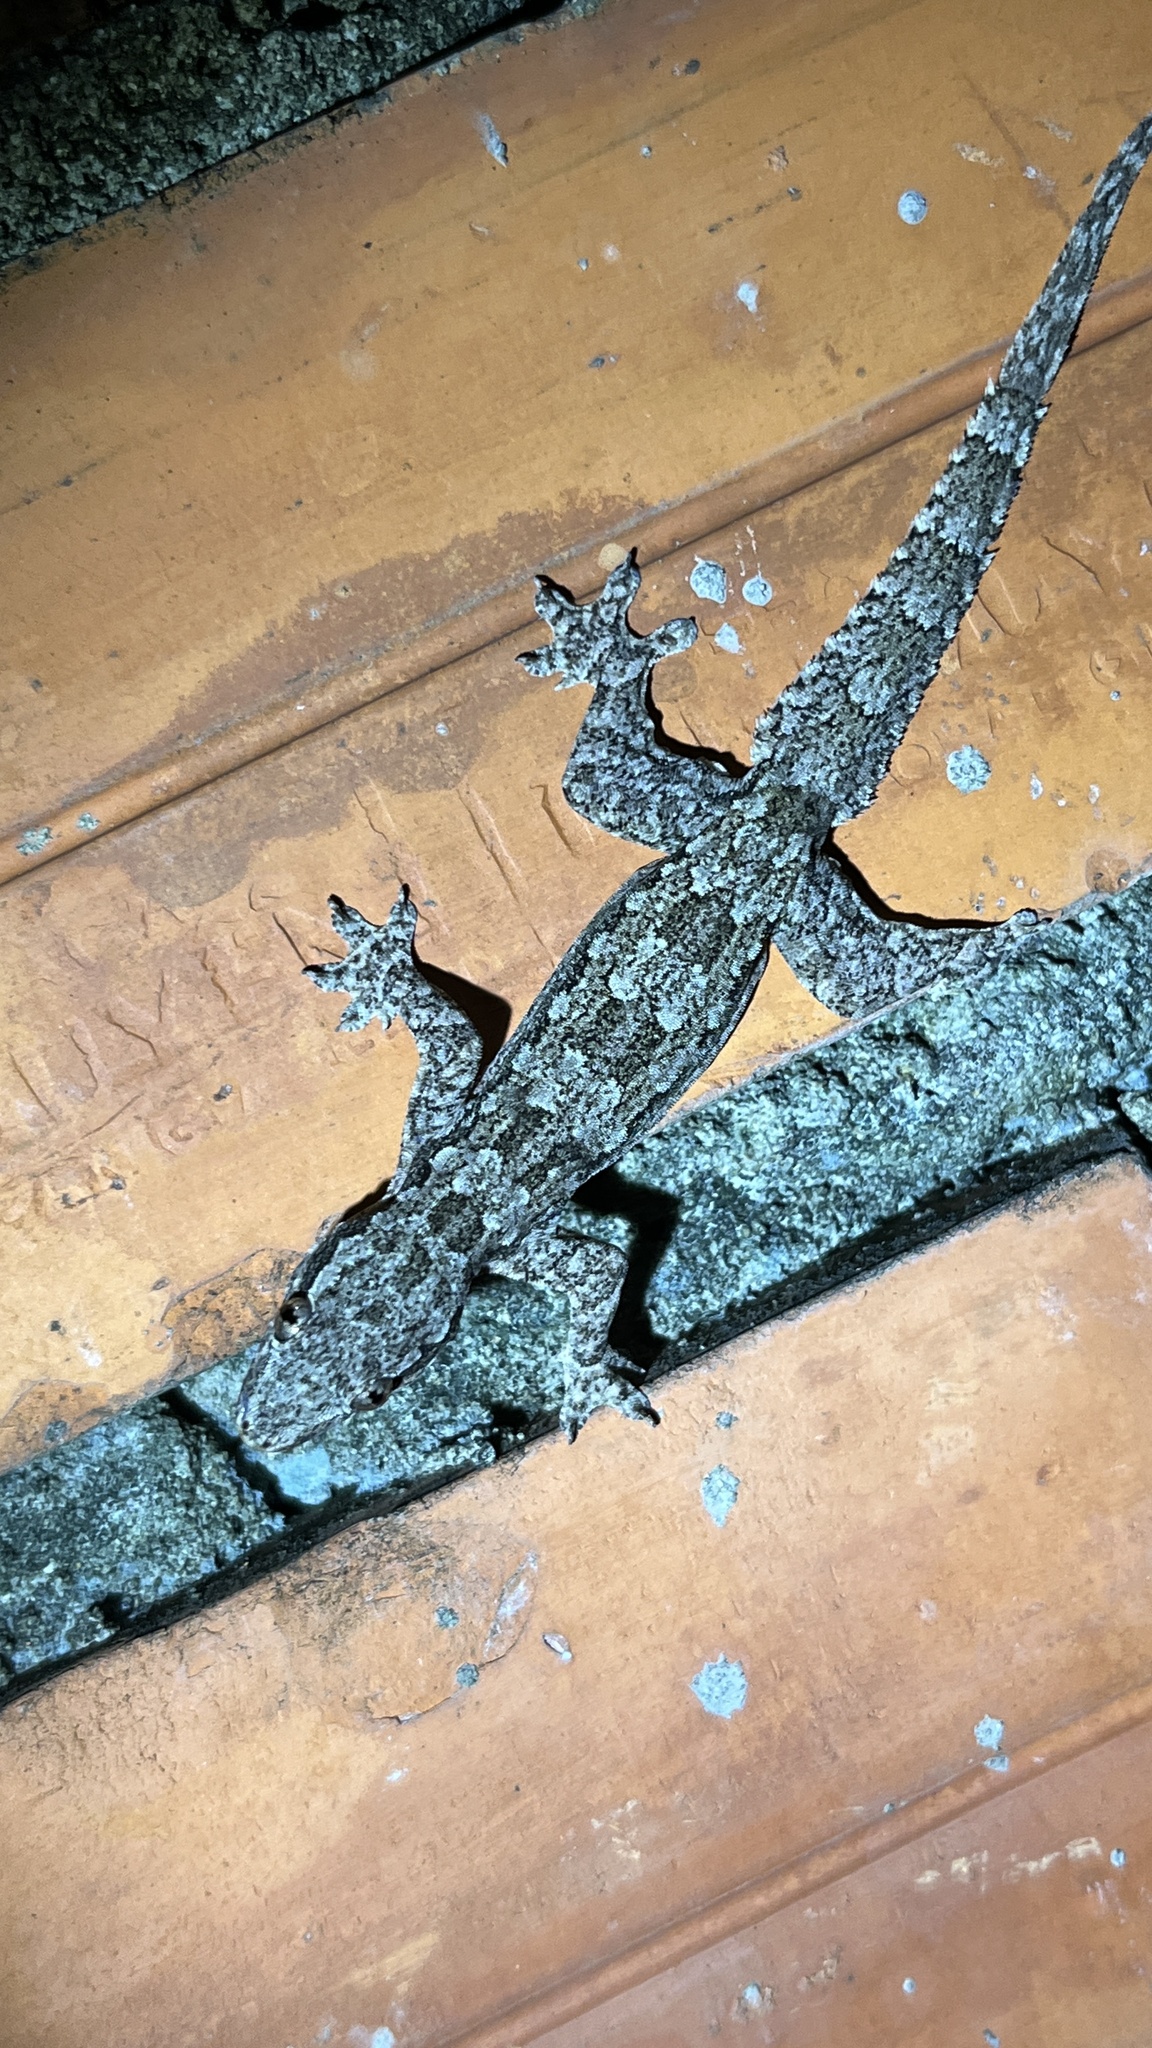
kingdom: Animalia
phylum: Chordata
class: Squamata
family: Gekkonidae
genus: Hemidactylus
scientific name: Hemidactylus platyurus
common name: Flat-tailed house gecko
